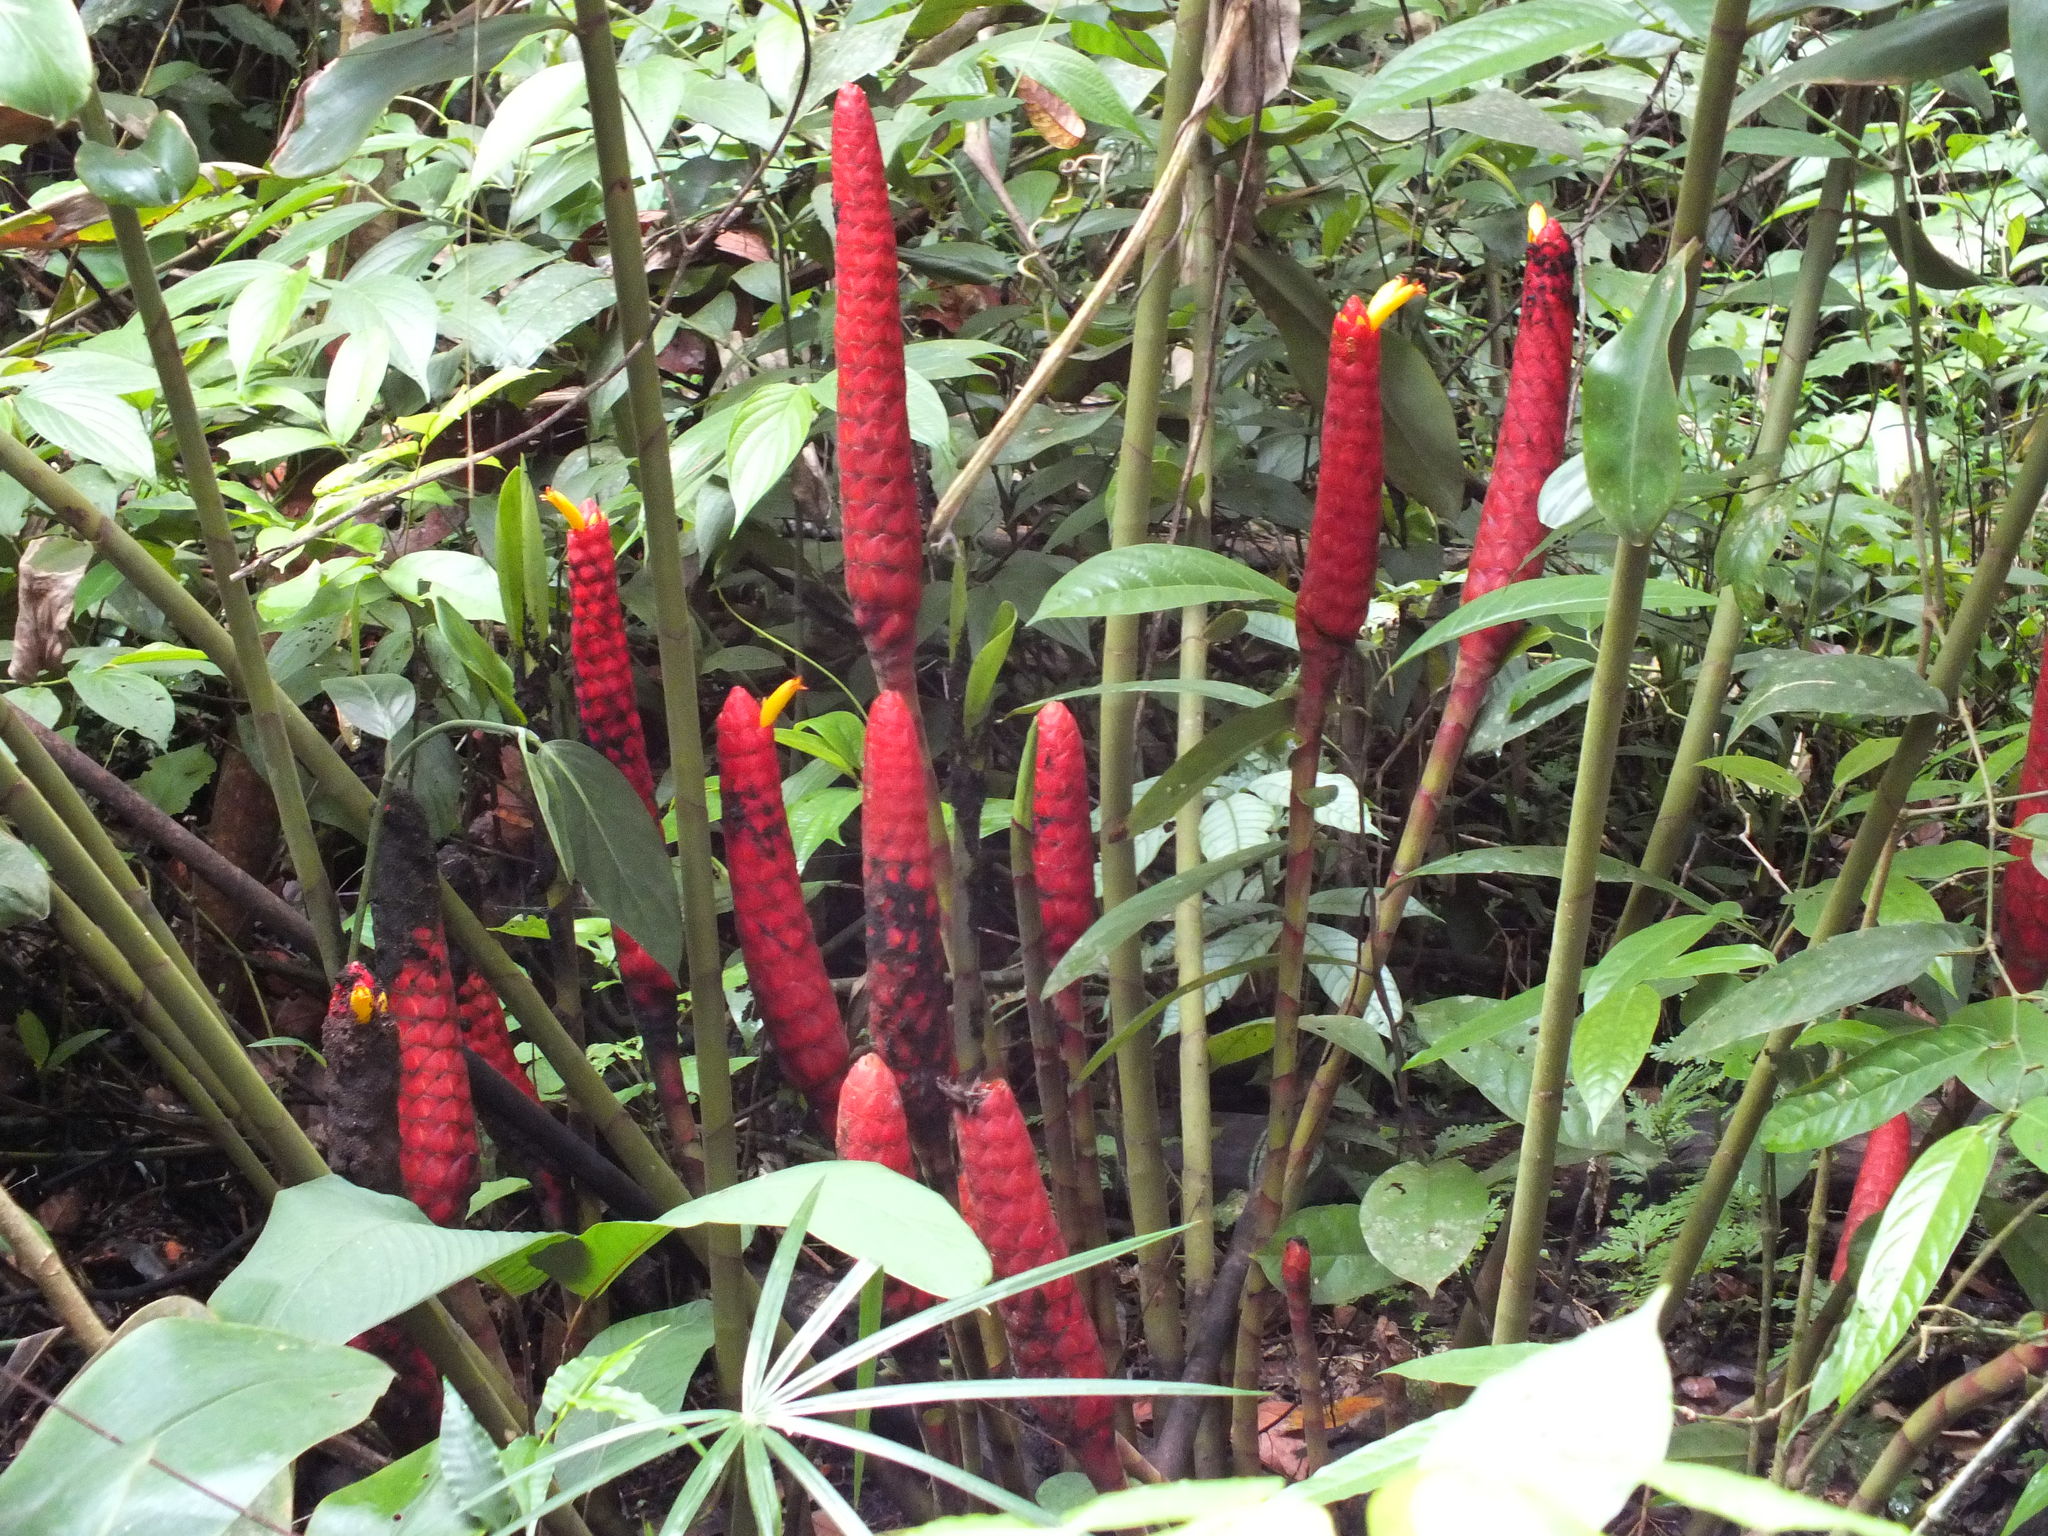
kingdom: Plantae
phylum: Tracheophyta
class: Liliopsida
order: Zingiberales
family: Costaceae
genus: Costus
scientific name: Costus erythrocoryne
